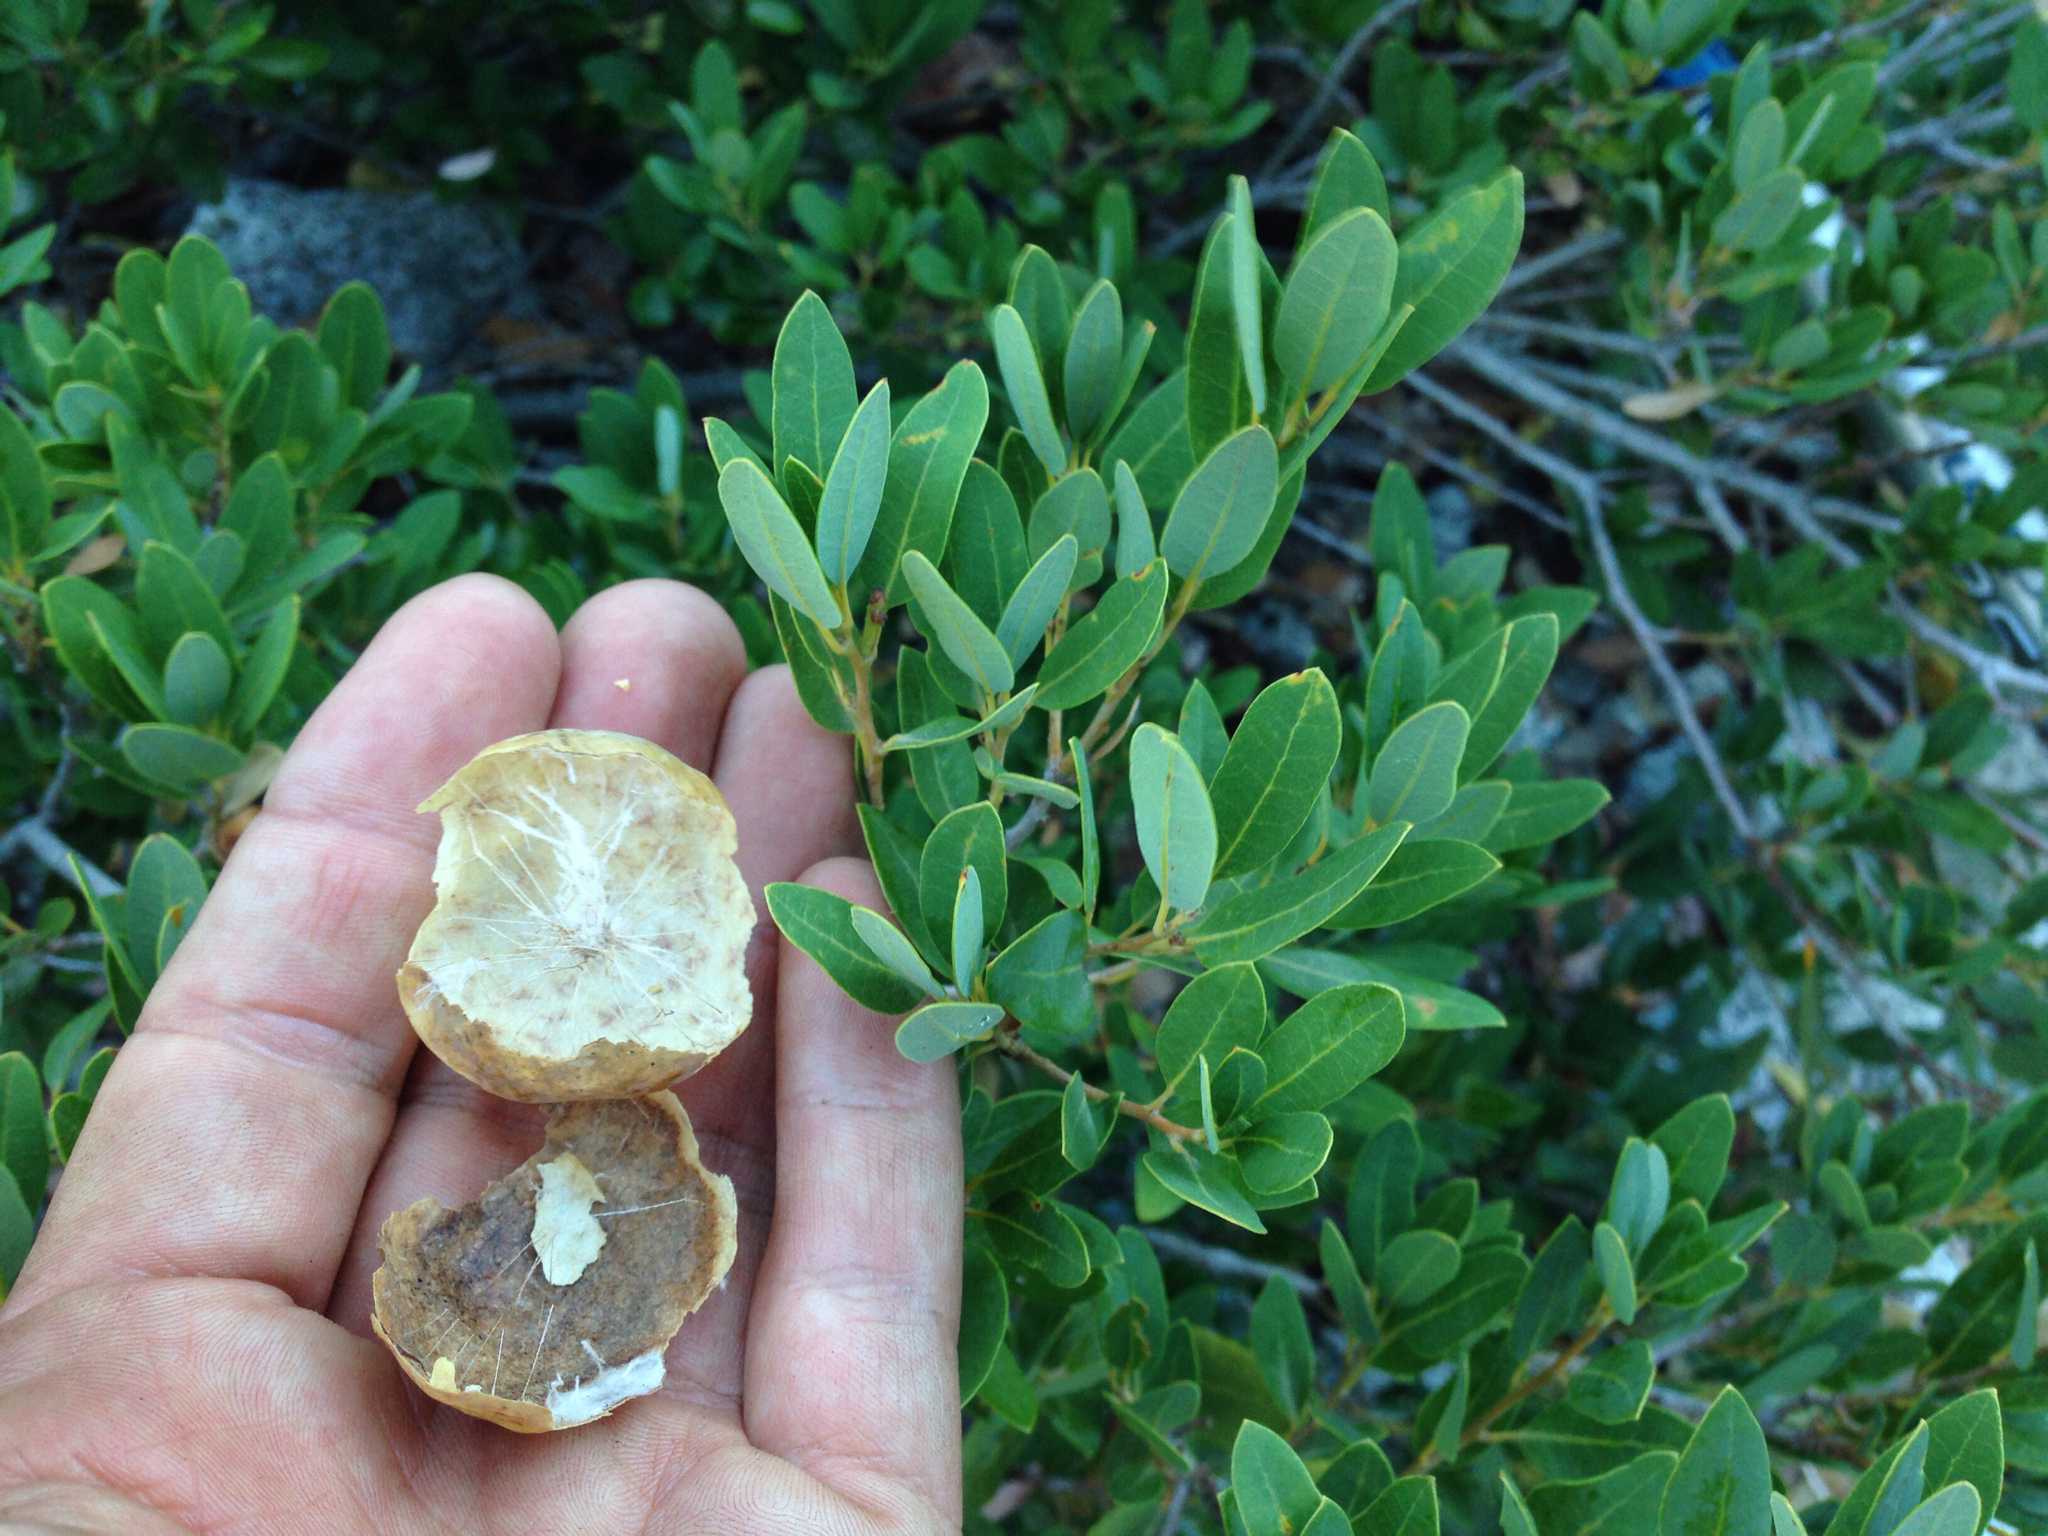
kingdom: Animalia
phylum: Arthropoda
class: Insecta
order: Hymenoptera
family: Cynipidae
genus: Andricus
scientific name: Andricus
